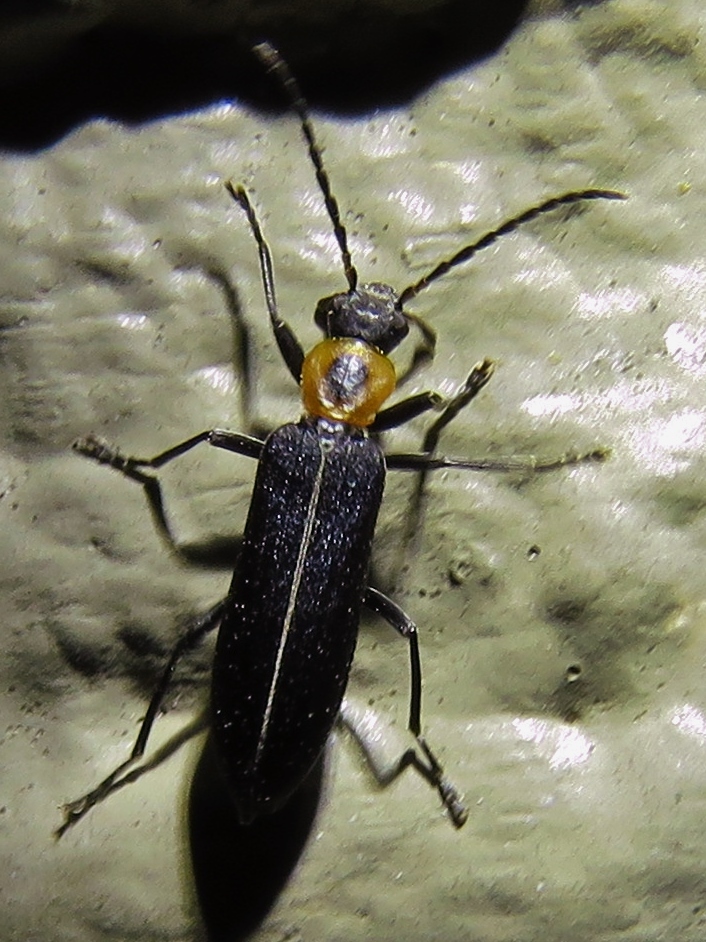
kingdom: Animalia
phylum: Arthropoda
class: Insecta
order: Coleoptera
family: Oedemeridae
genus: Ischnomera
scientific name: Ischnomera
